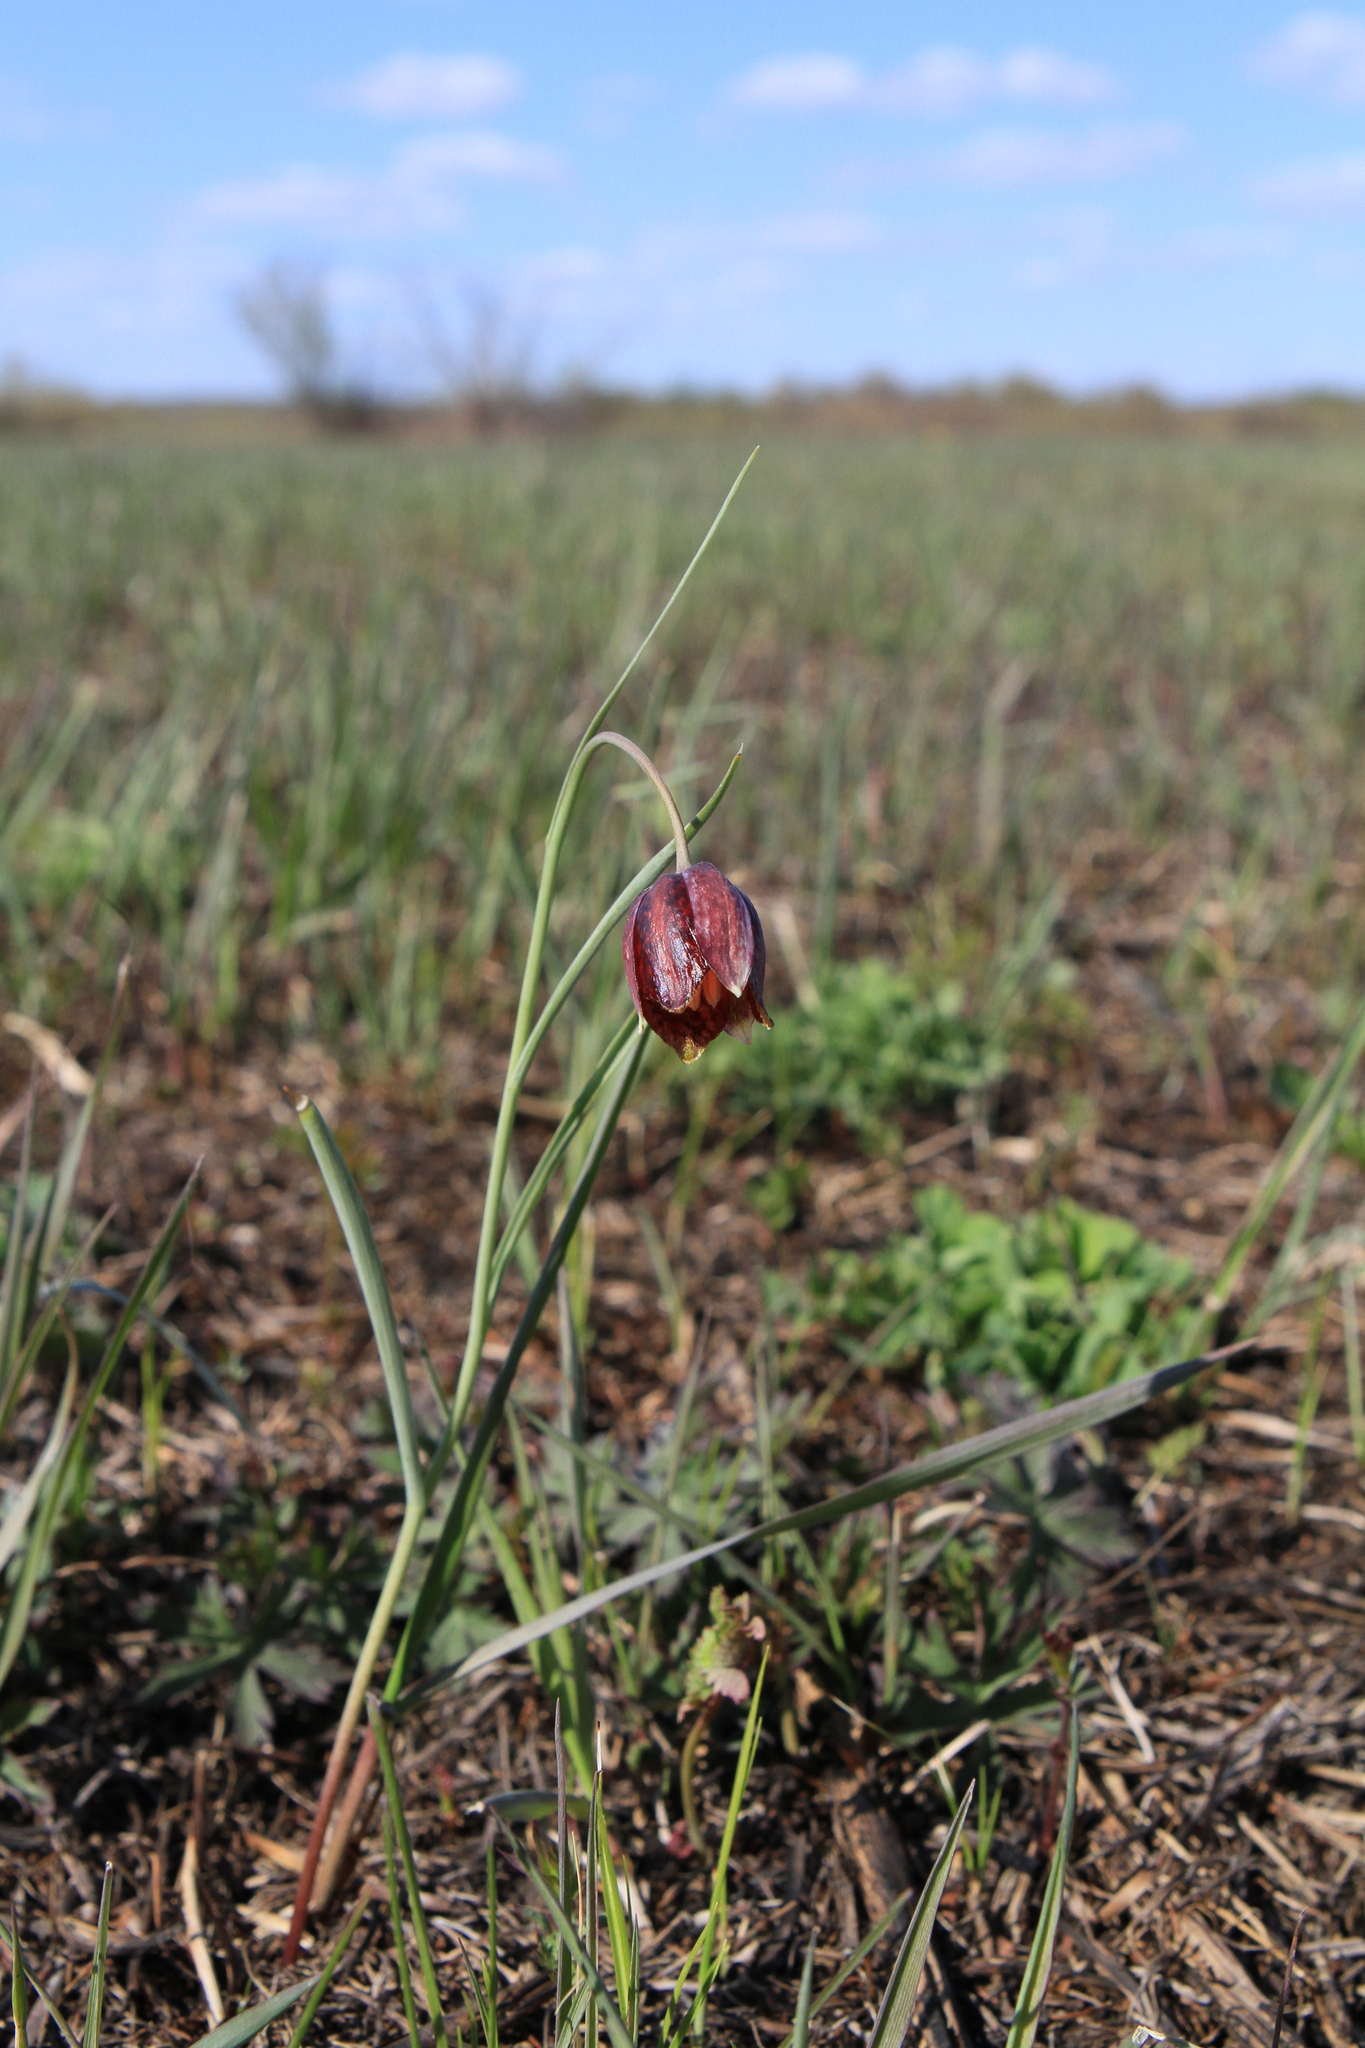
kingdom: Plantae
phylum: Tracheophyta
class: Liliopsida
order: Liliales
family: Liliaceae
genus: Fritillaria
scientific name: Fritillaria meleagroides
